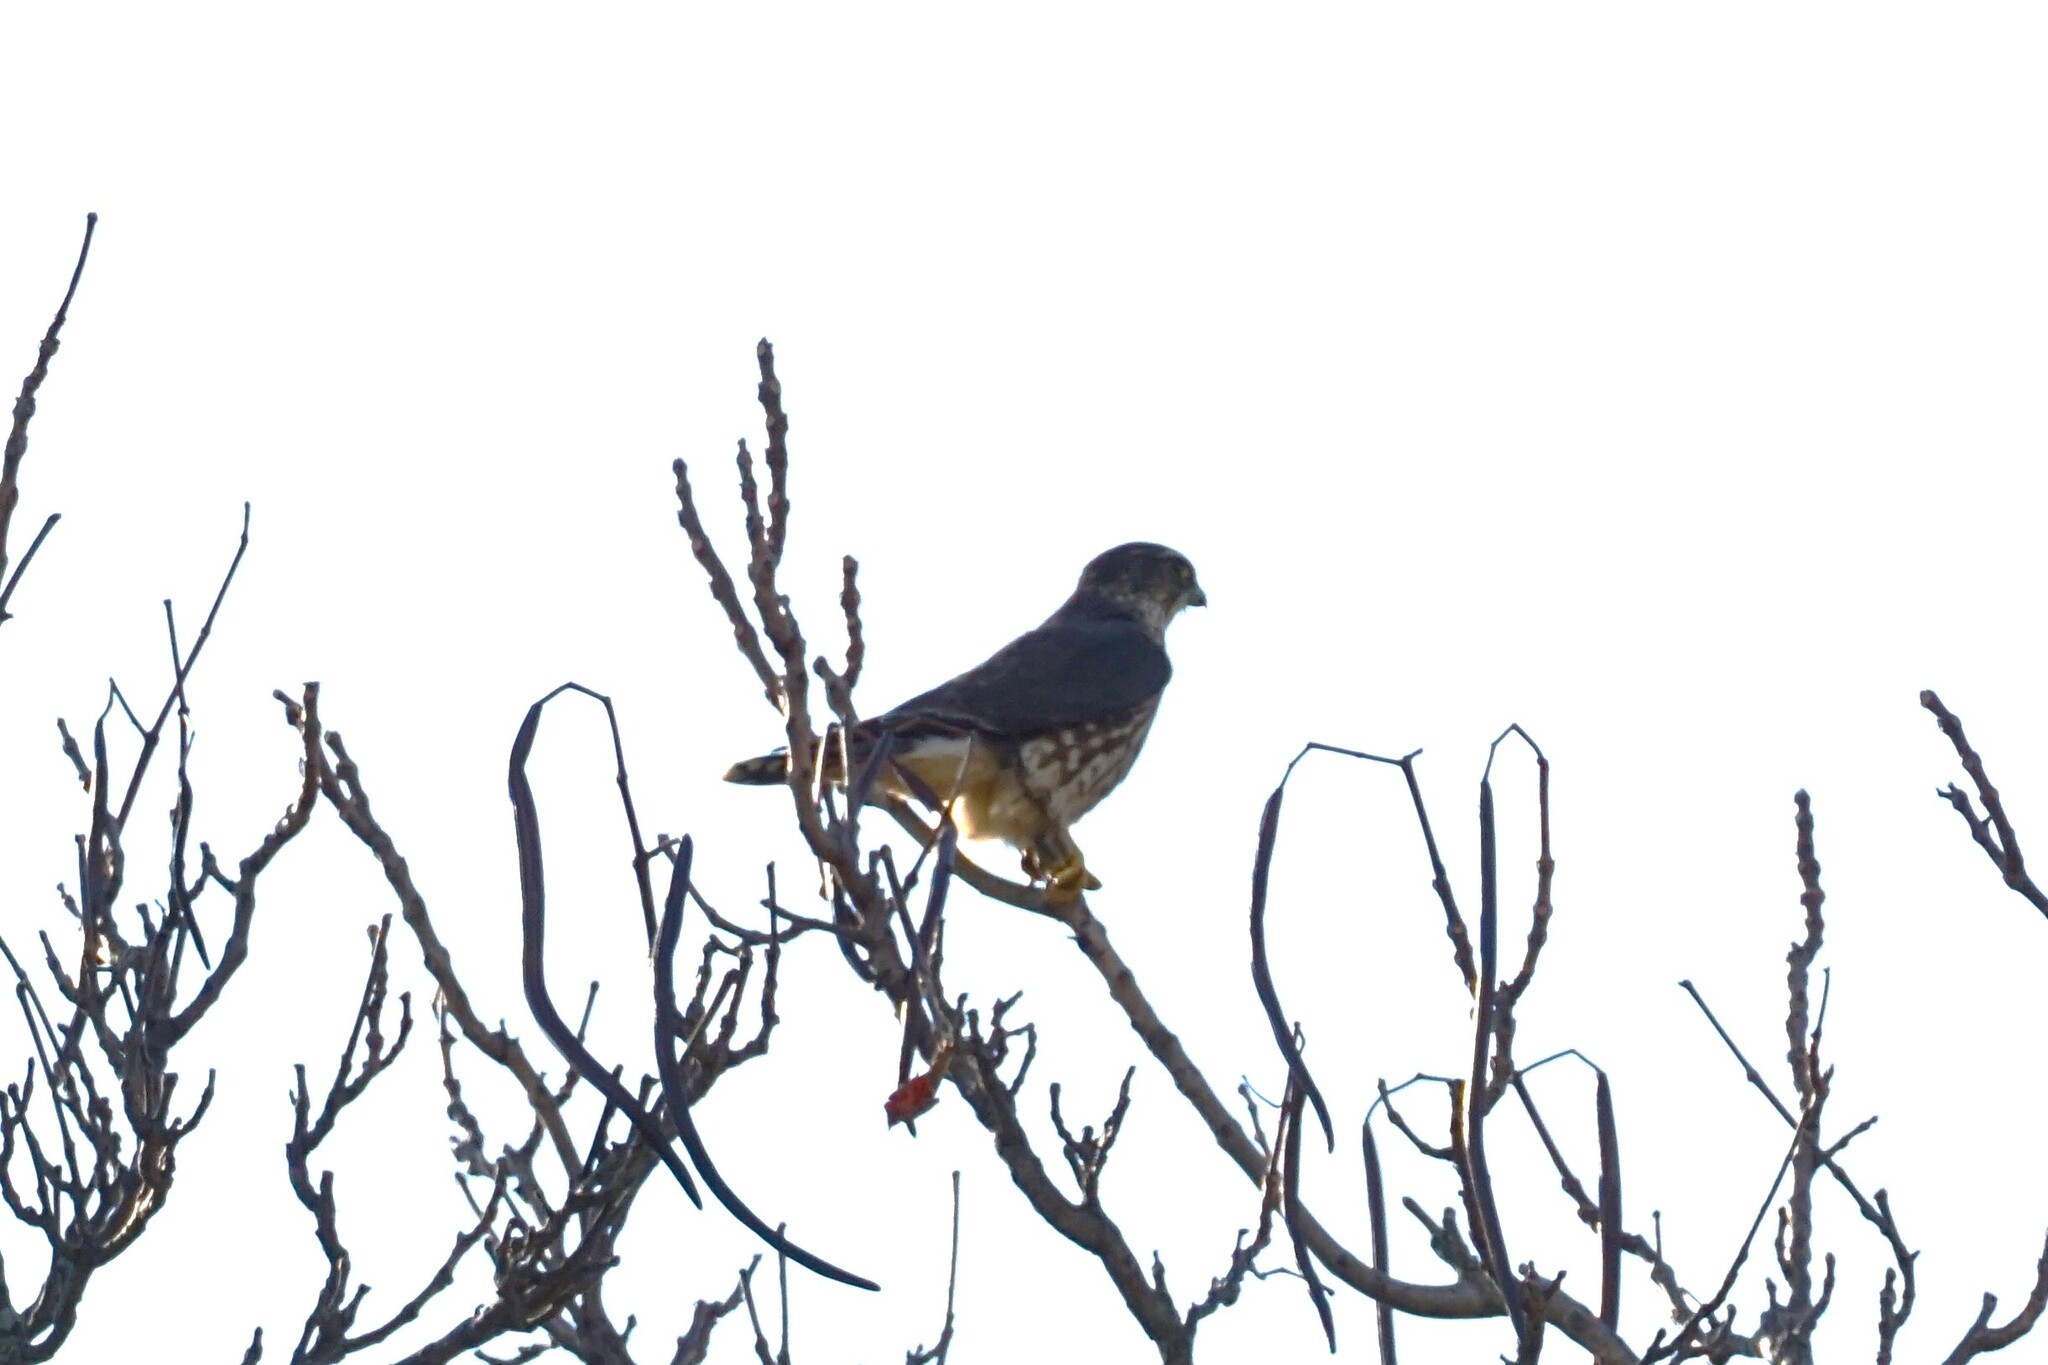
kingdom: Animalia
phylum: Chordata
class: Aves
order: Falconiformes
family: Falconidae
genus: Falco
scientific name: Falco columbarius
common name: Merlin
